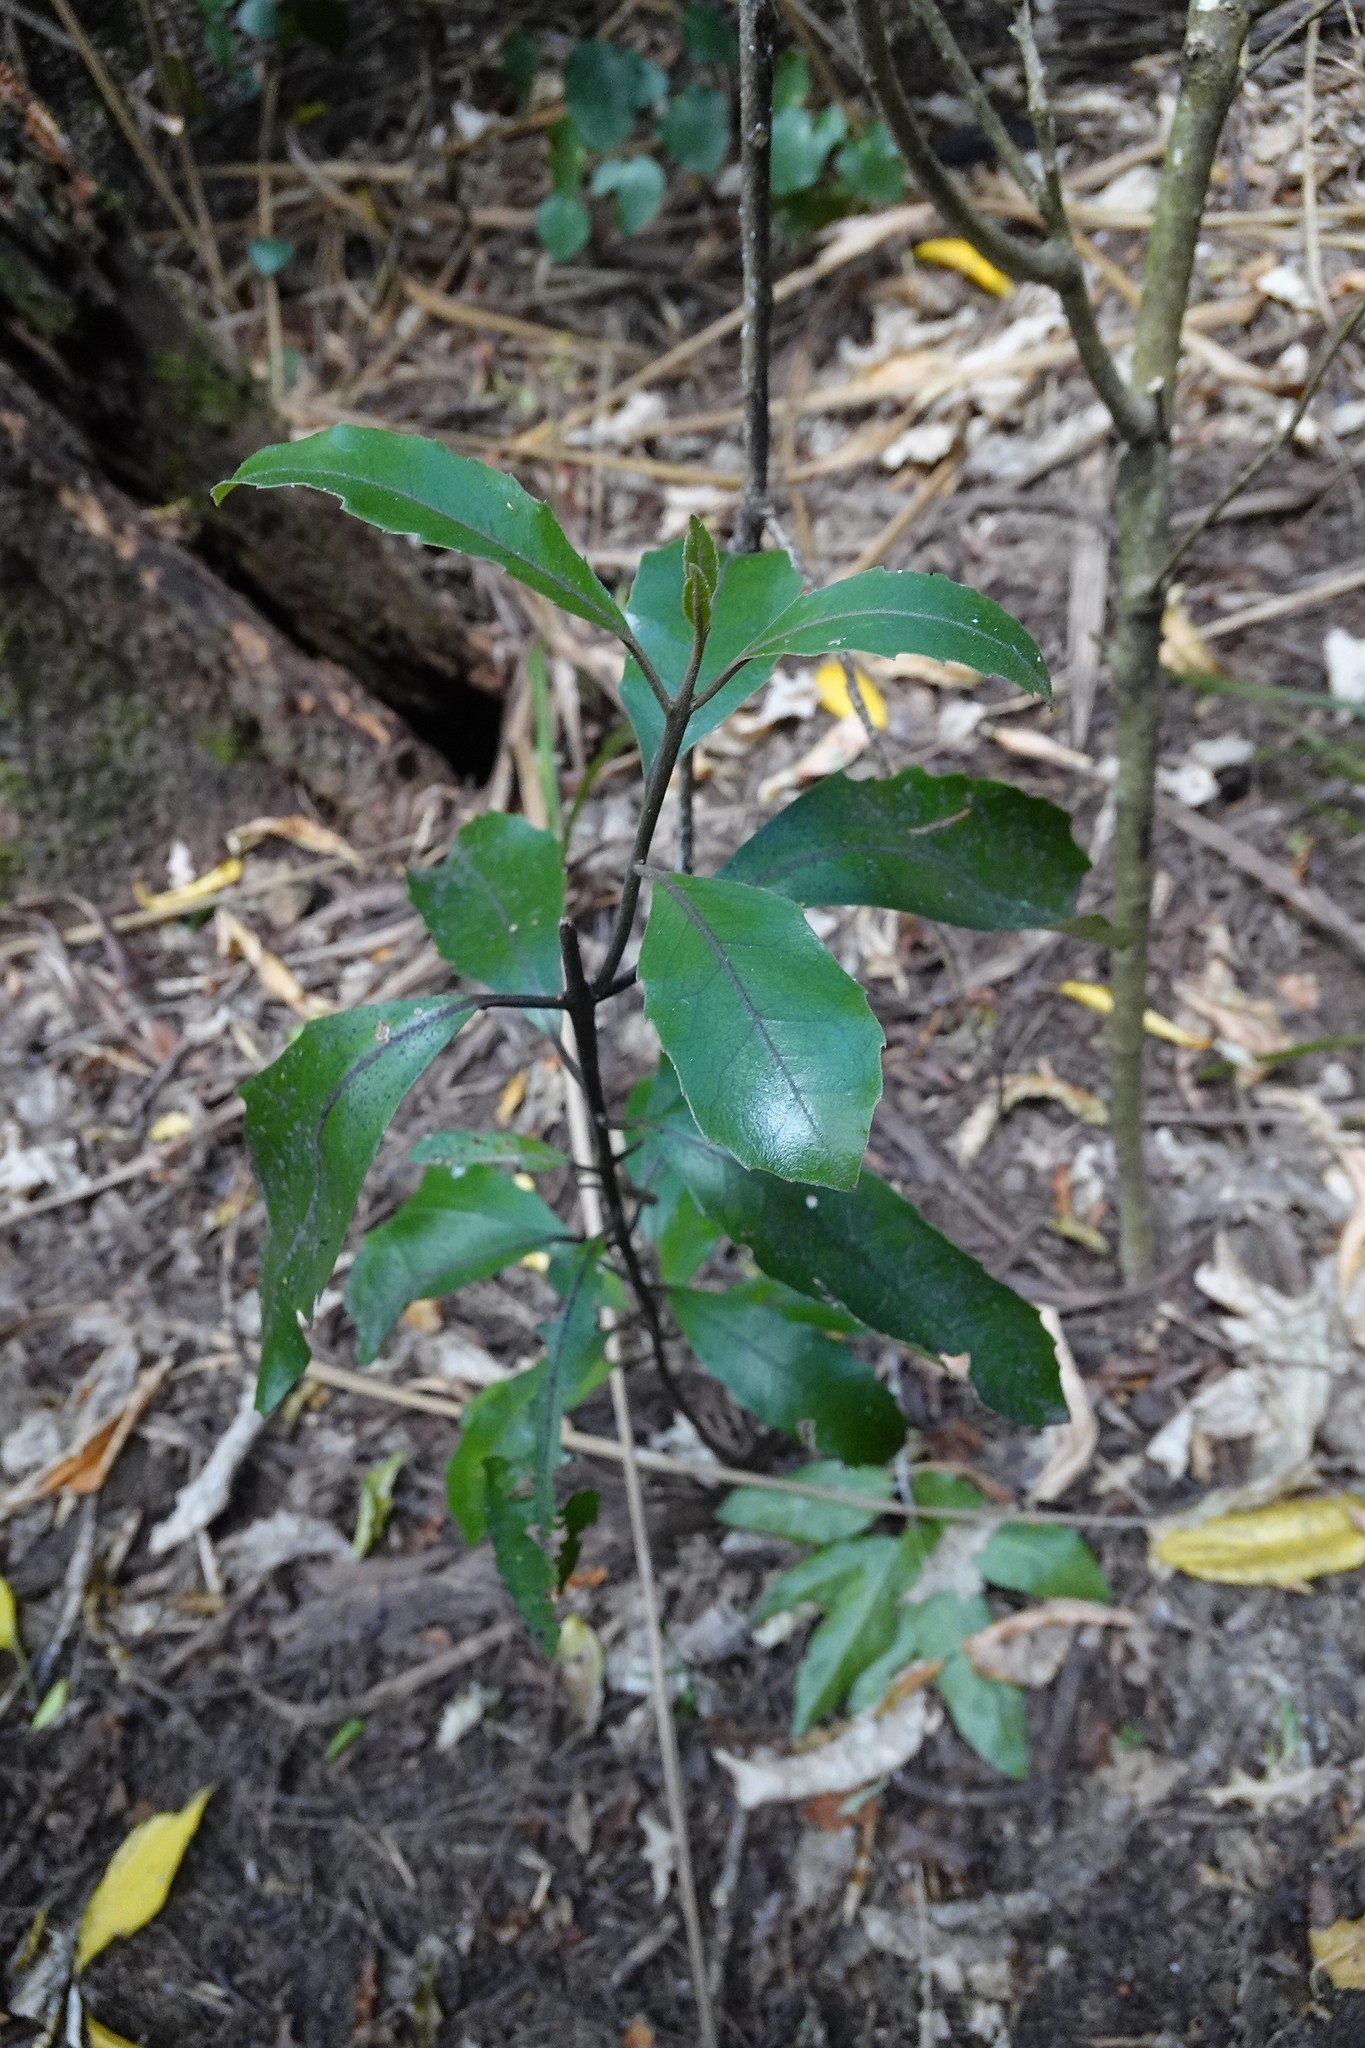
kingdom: Plantae
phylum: Tracheophyta
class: Magnoliopsida
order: Laurales
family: Monimiaceae
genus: Hedycarya
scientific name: Hedycarya arborea
